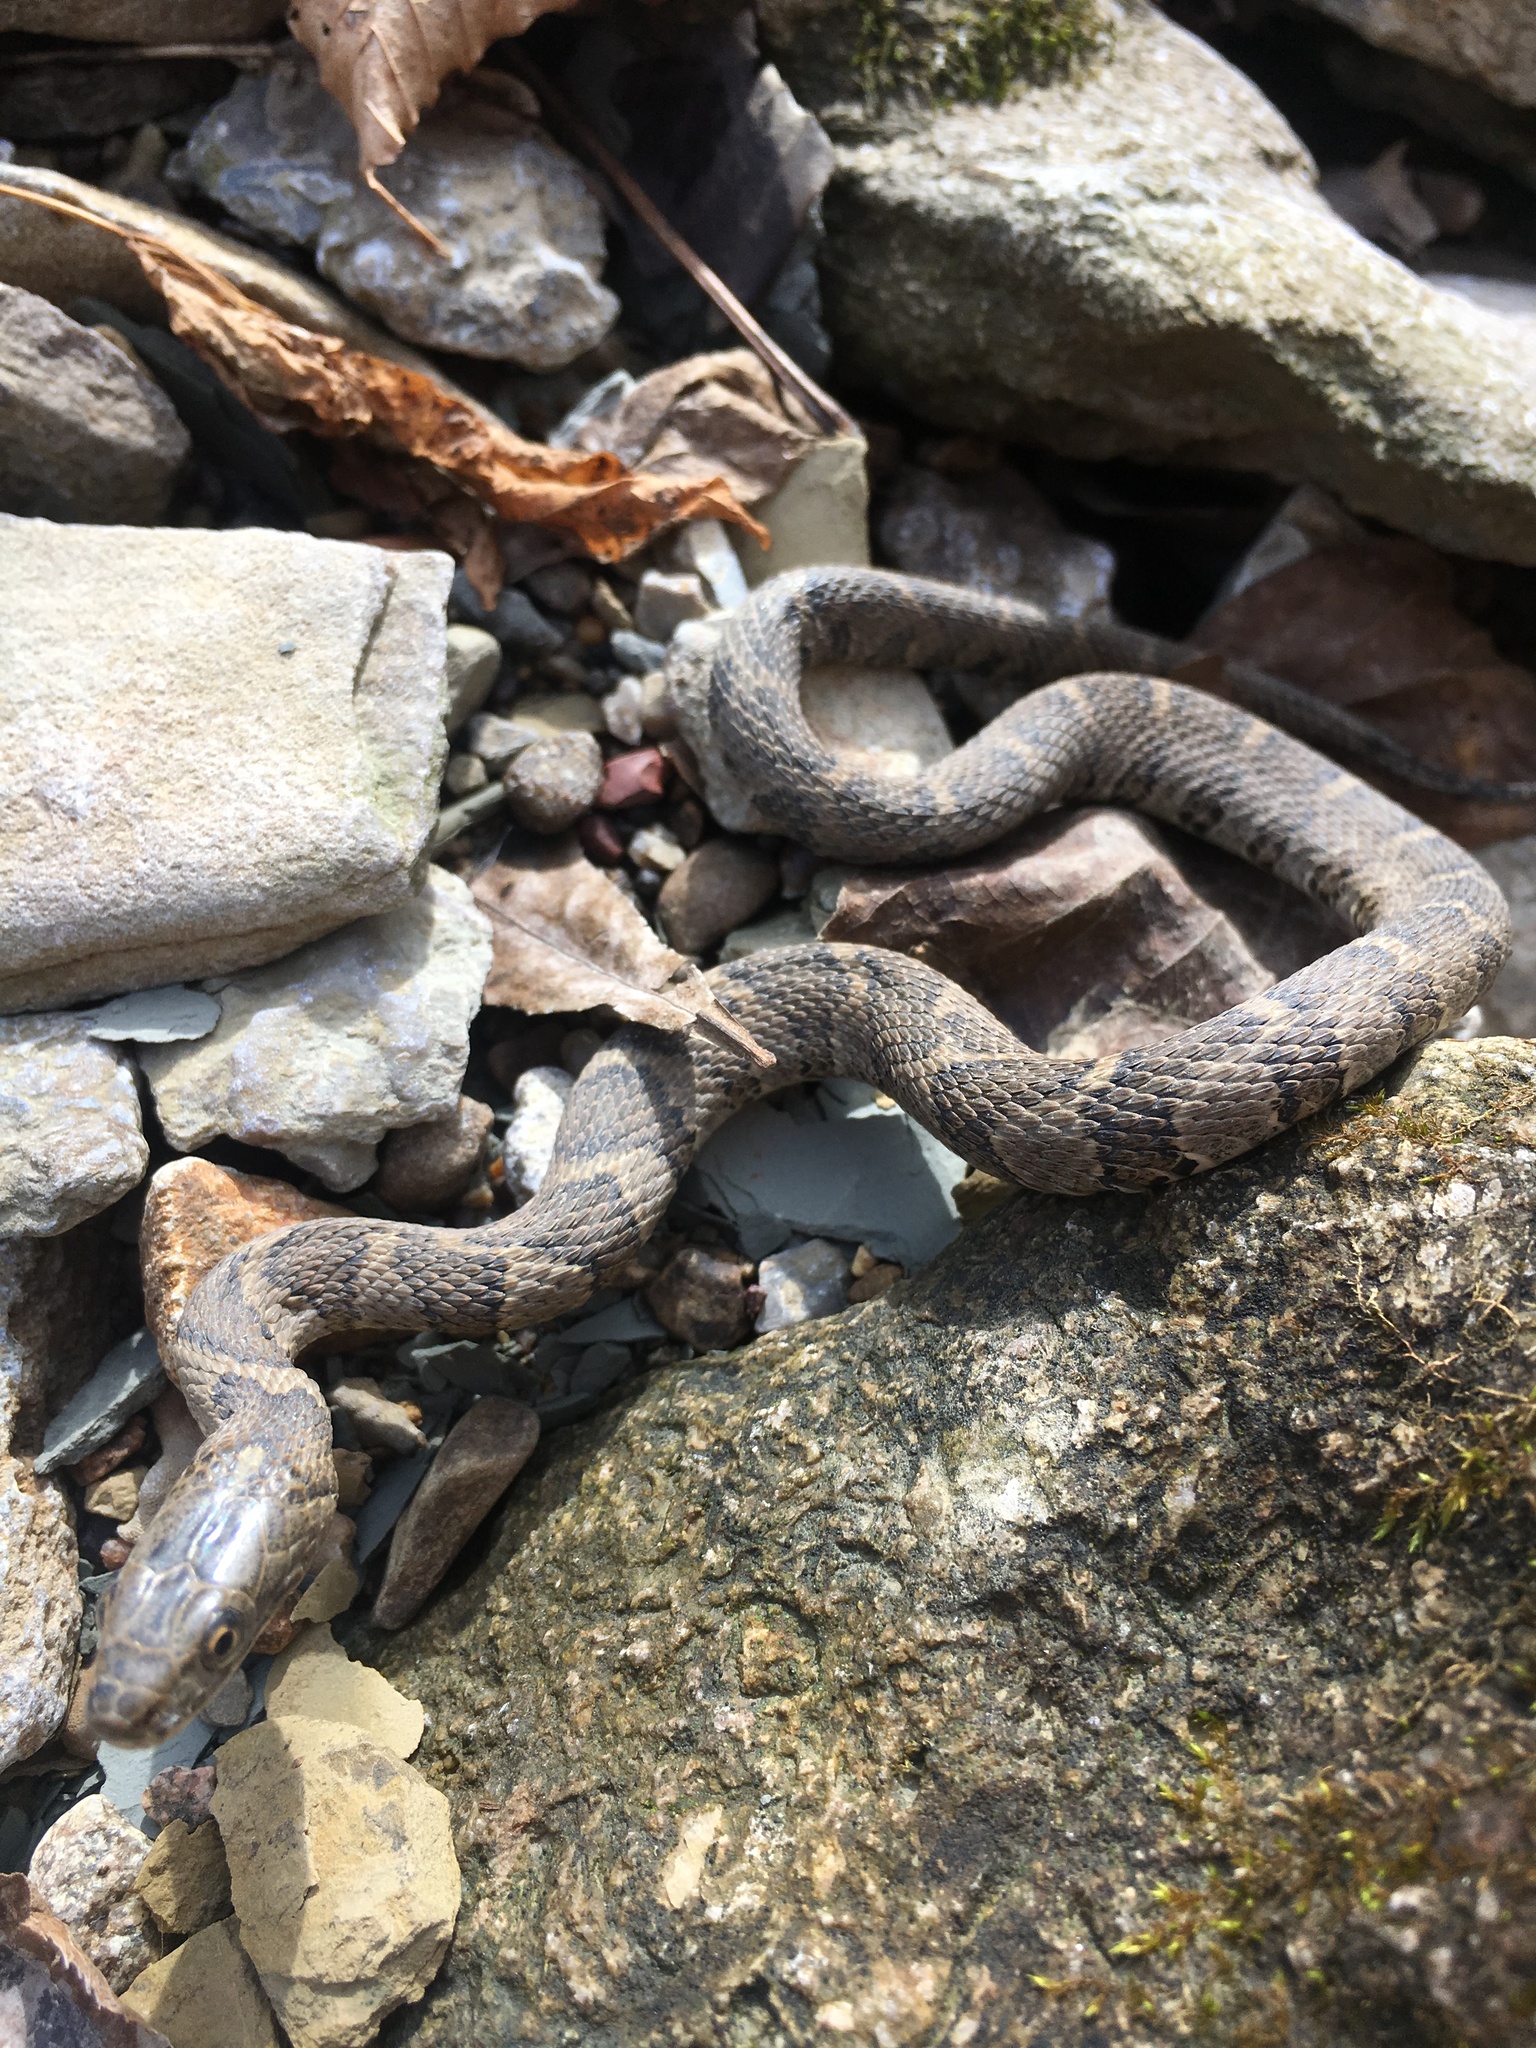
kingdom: Animalia
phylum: Chordata
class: Squamata
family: Colubridae
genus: Nerodia
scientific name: Nerodia sipedon
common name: Northern water snake
